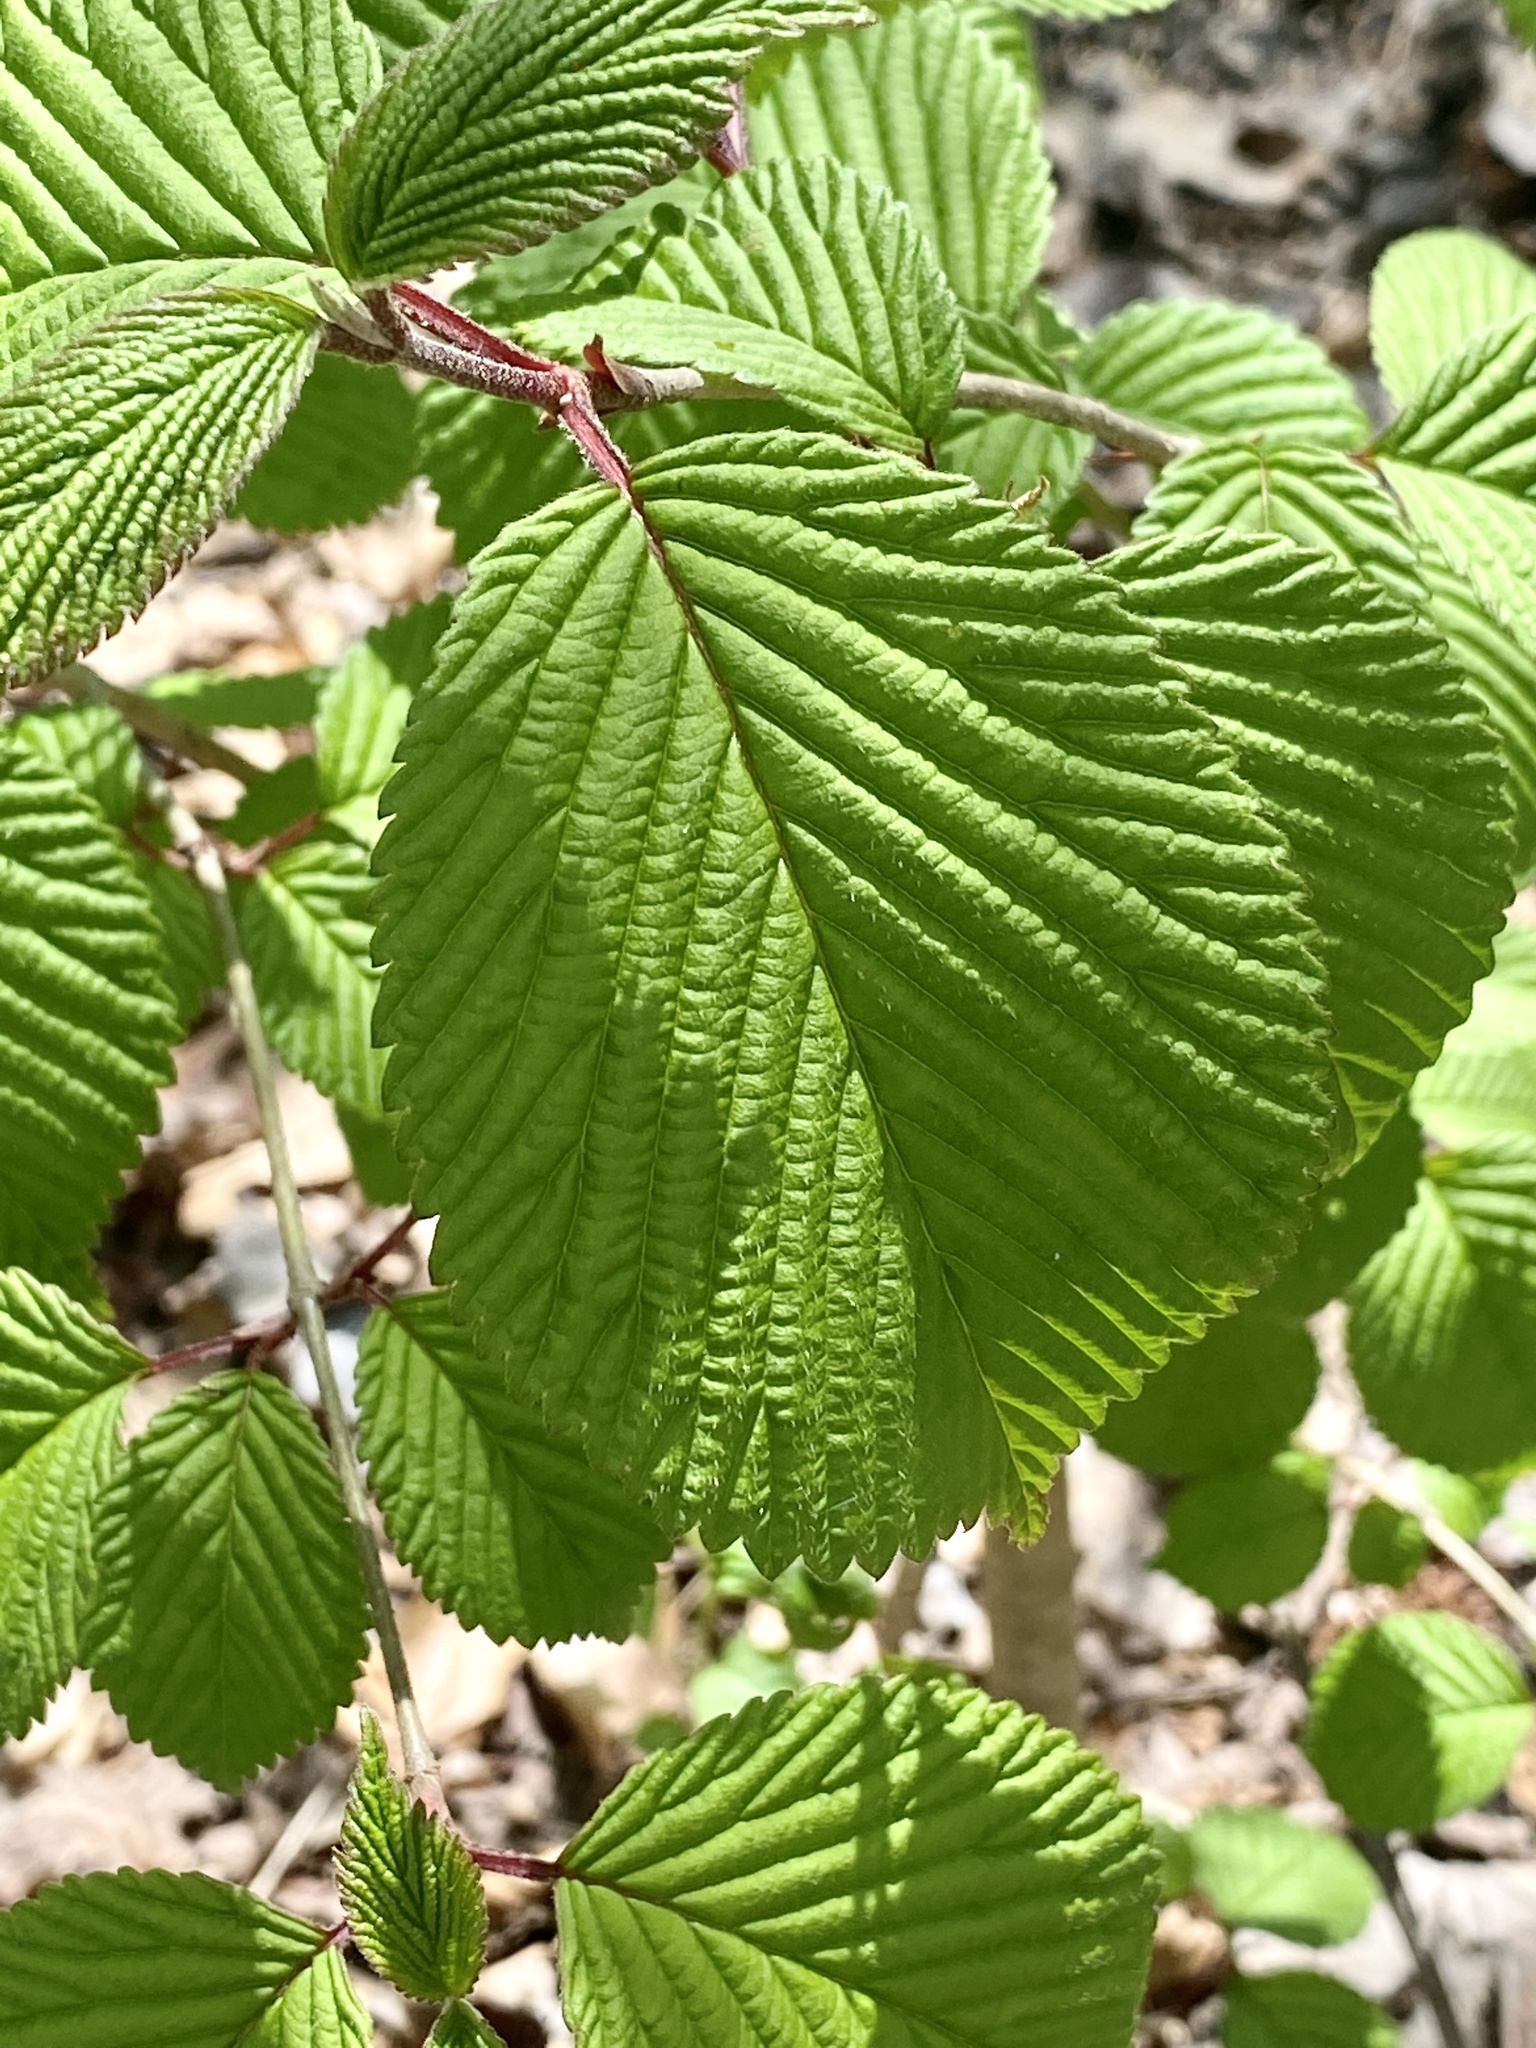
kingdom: Plantae
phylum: Tracheophyta
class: Magnoliopsida
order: Dipsacales
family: Viburnaceae
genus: Viburnum
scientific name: Viburnum plicatum
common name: Japanese snowball
